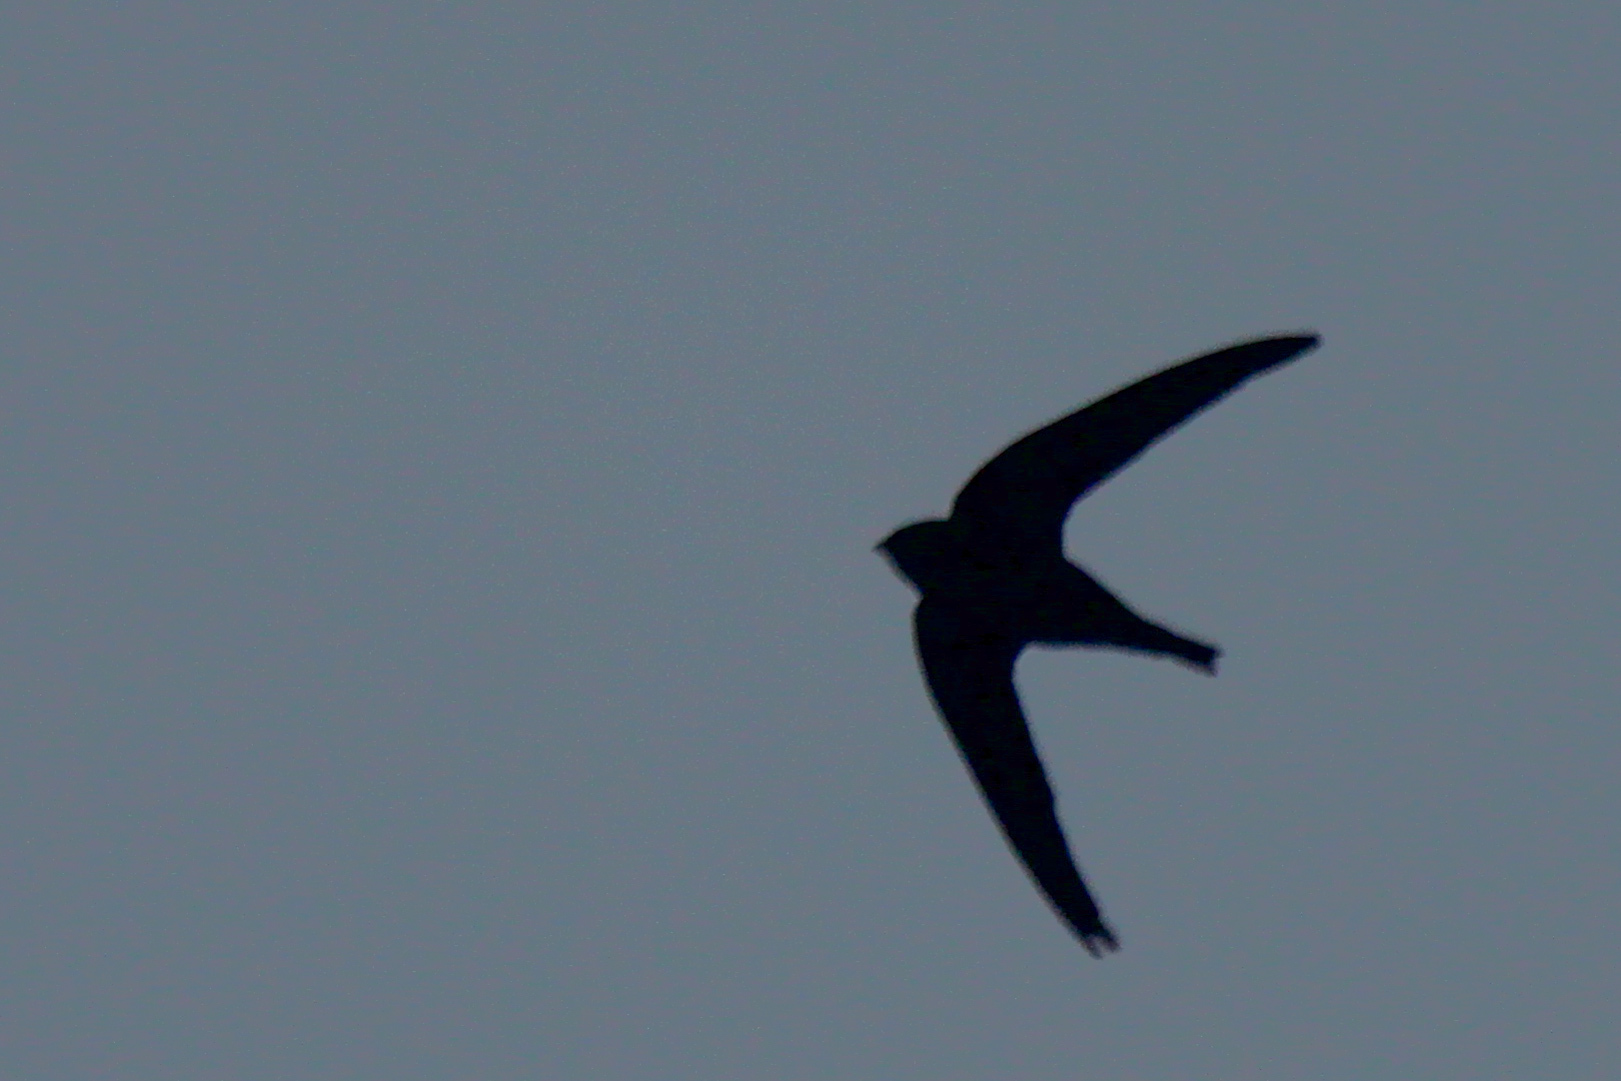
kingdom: Animalia
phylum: Chordata
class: Aves
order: Apodiformes
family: Apodidae
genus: Apus
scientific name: Apus apus
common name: Common swift
